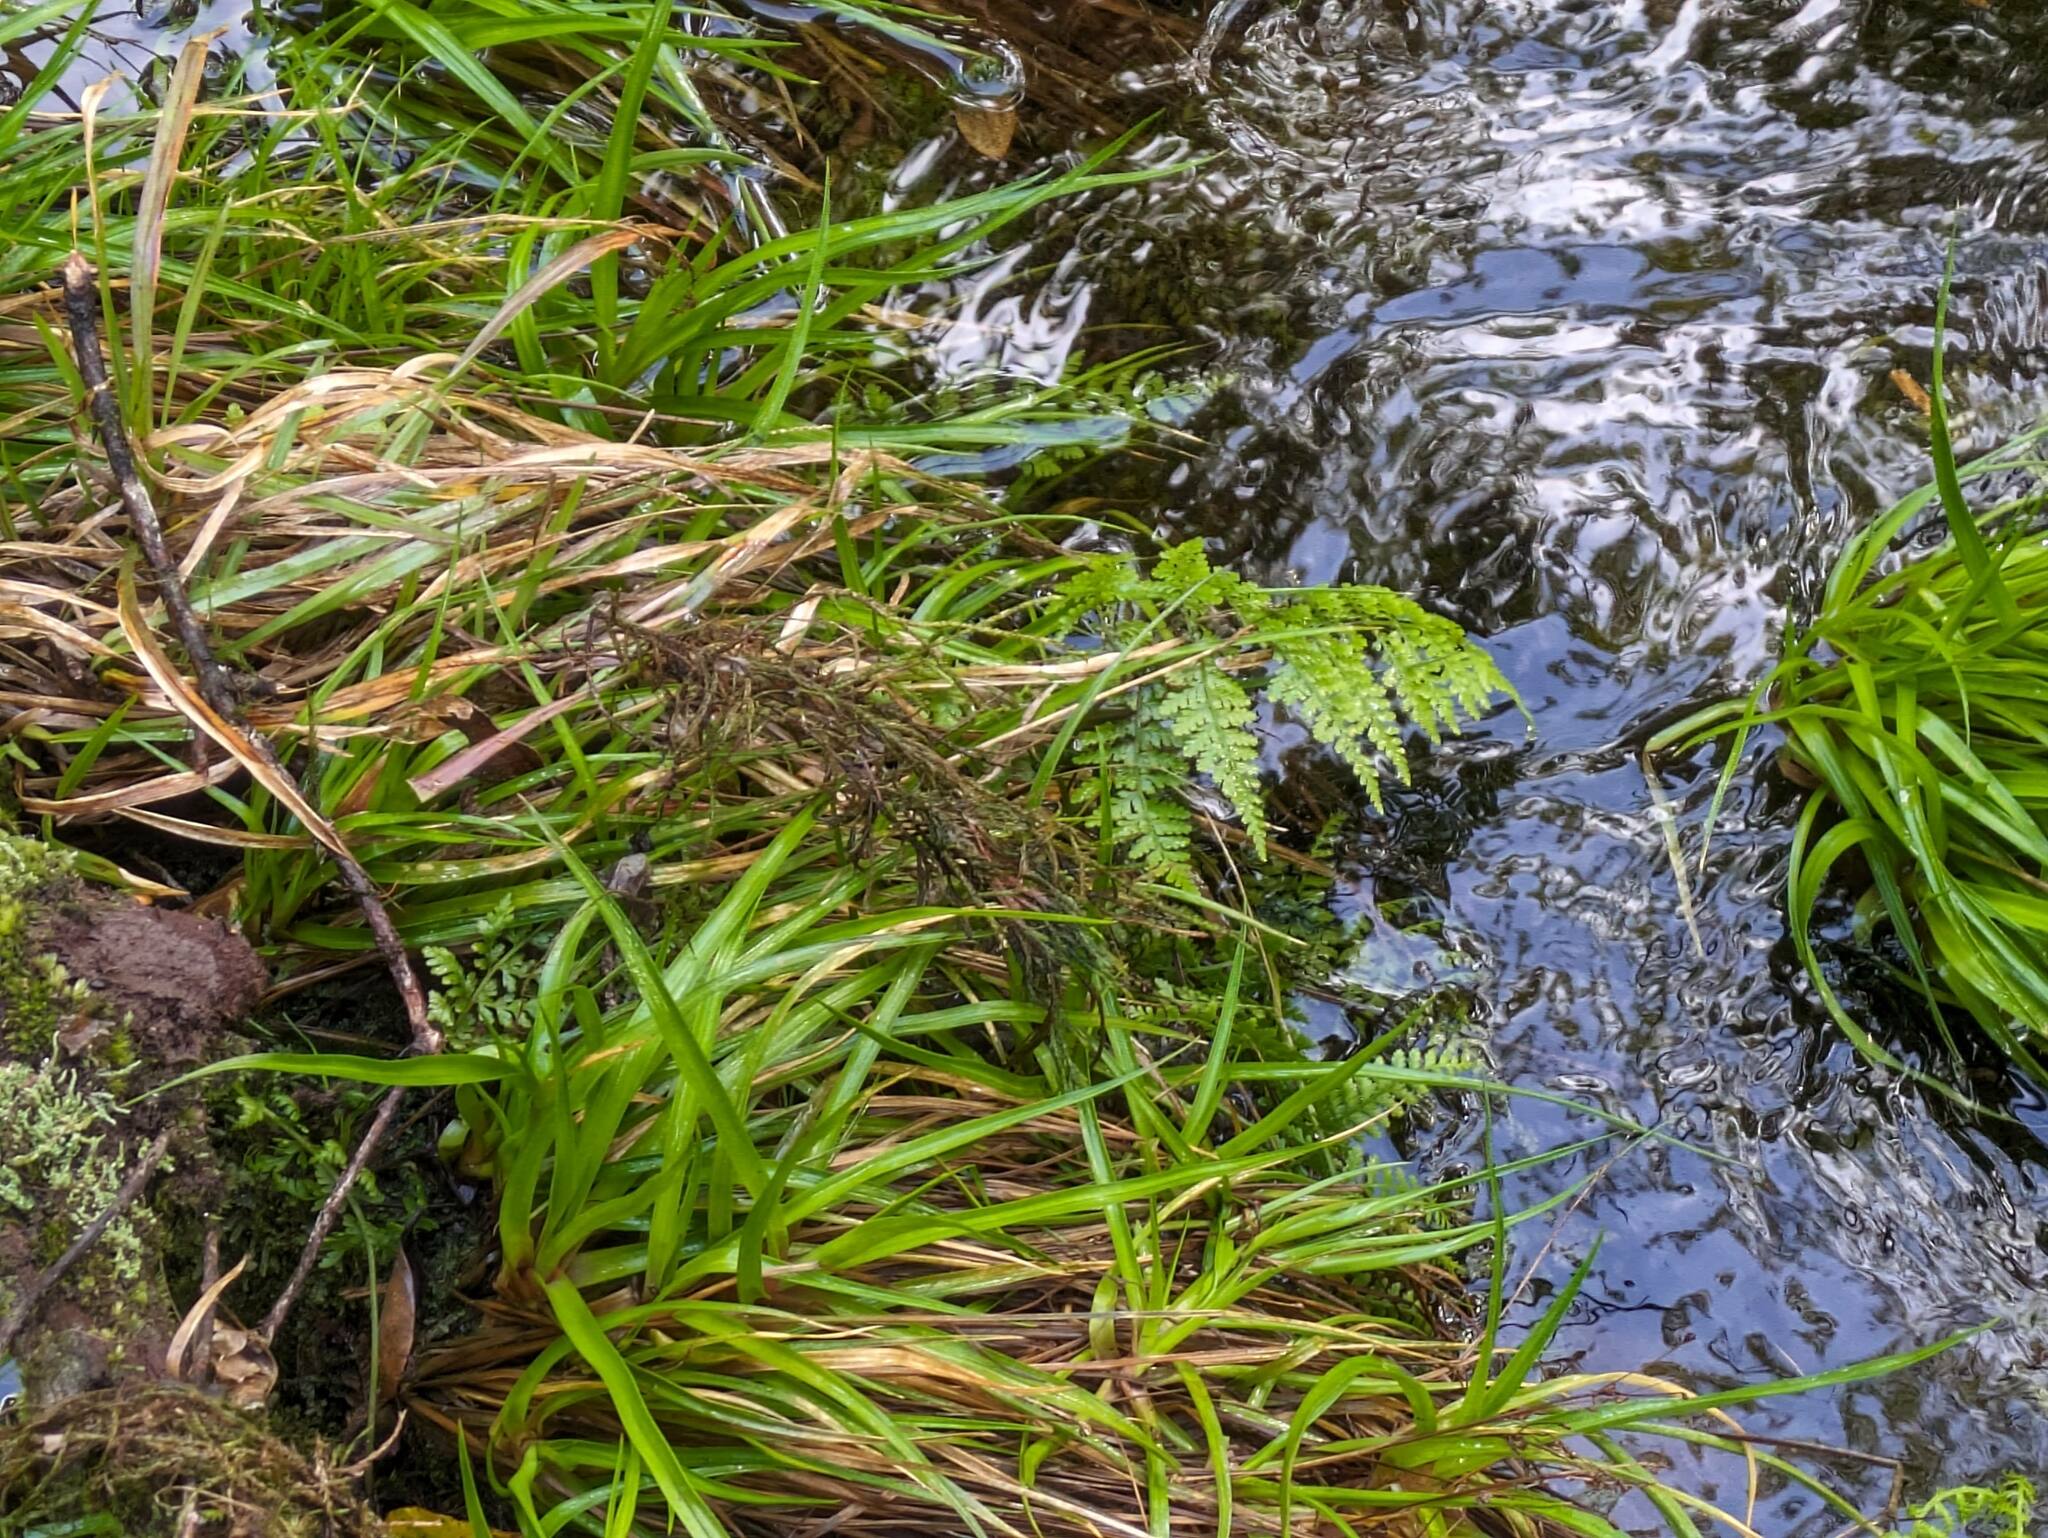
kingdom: Plantae
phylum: Tracheophyta
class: Liliopsida
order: Poales
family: Juncaceae
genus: Juncus
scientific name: Juncus planifolius
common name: Broadleaf rush
